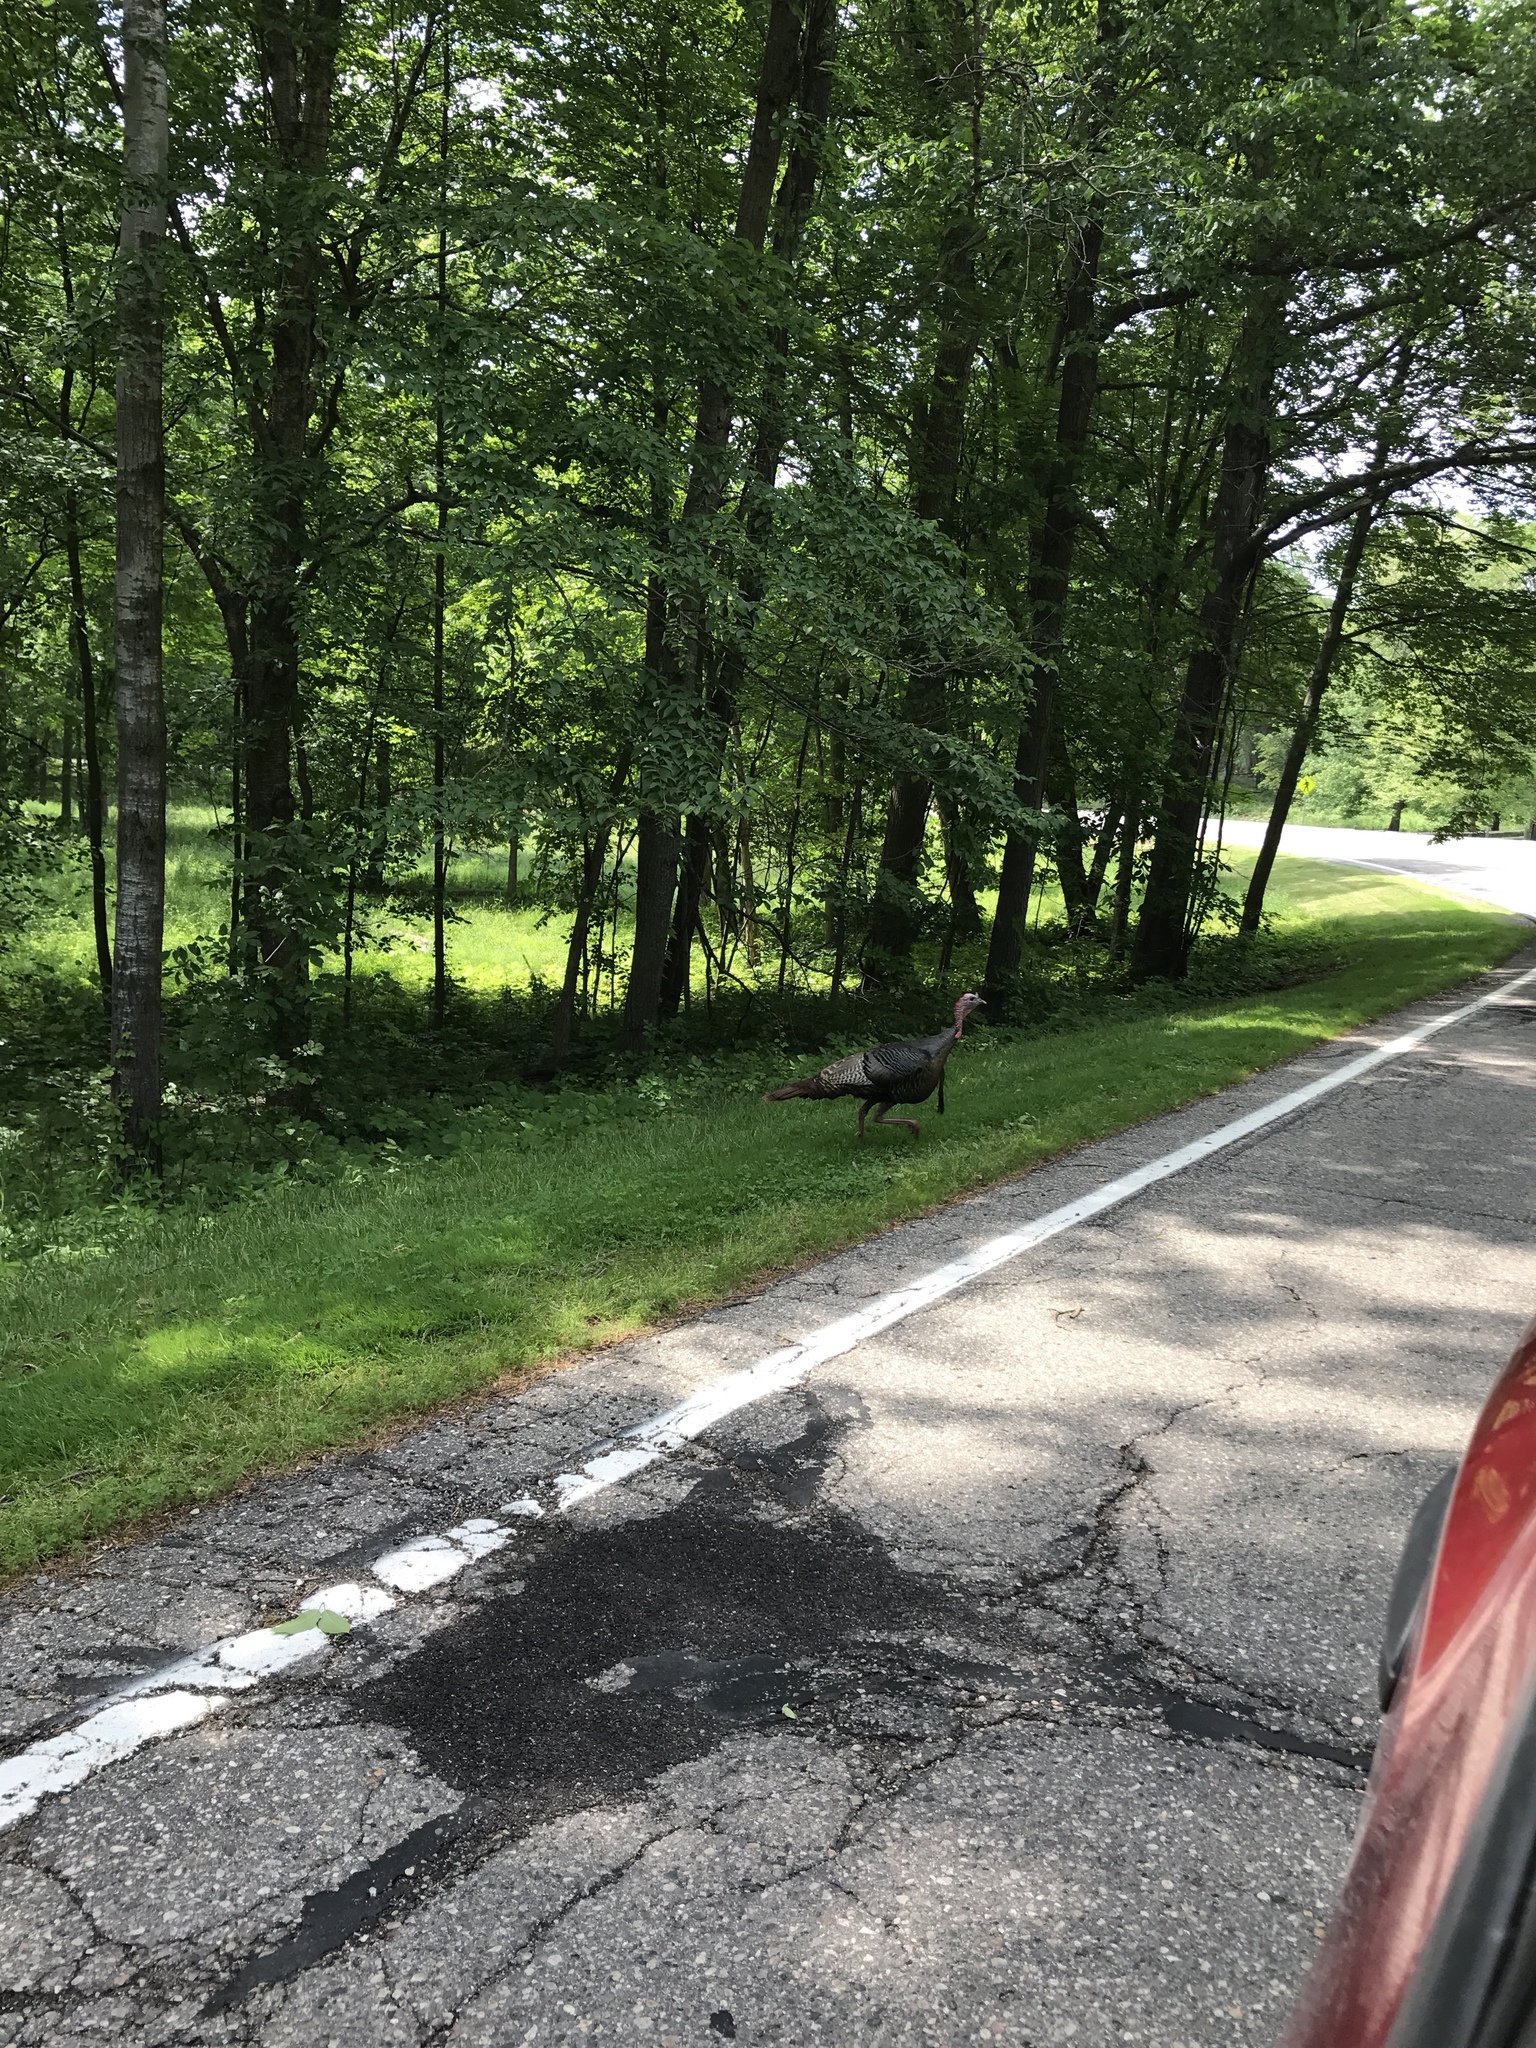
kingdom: Animalia
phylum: Chordata
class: Aves
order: Galliformes
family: Phasianidae
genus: Meleagris
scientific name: Meleagris gallopavo
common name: Wild turkey
